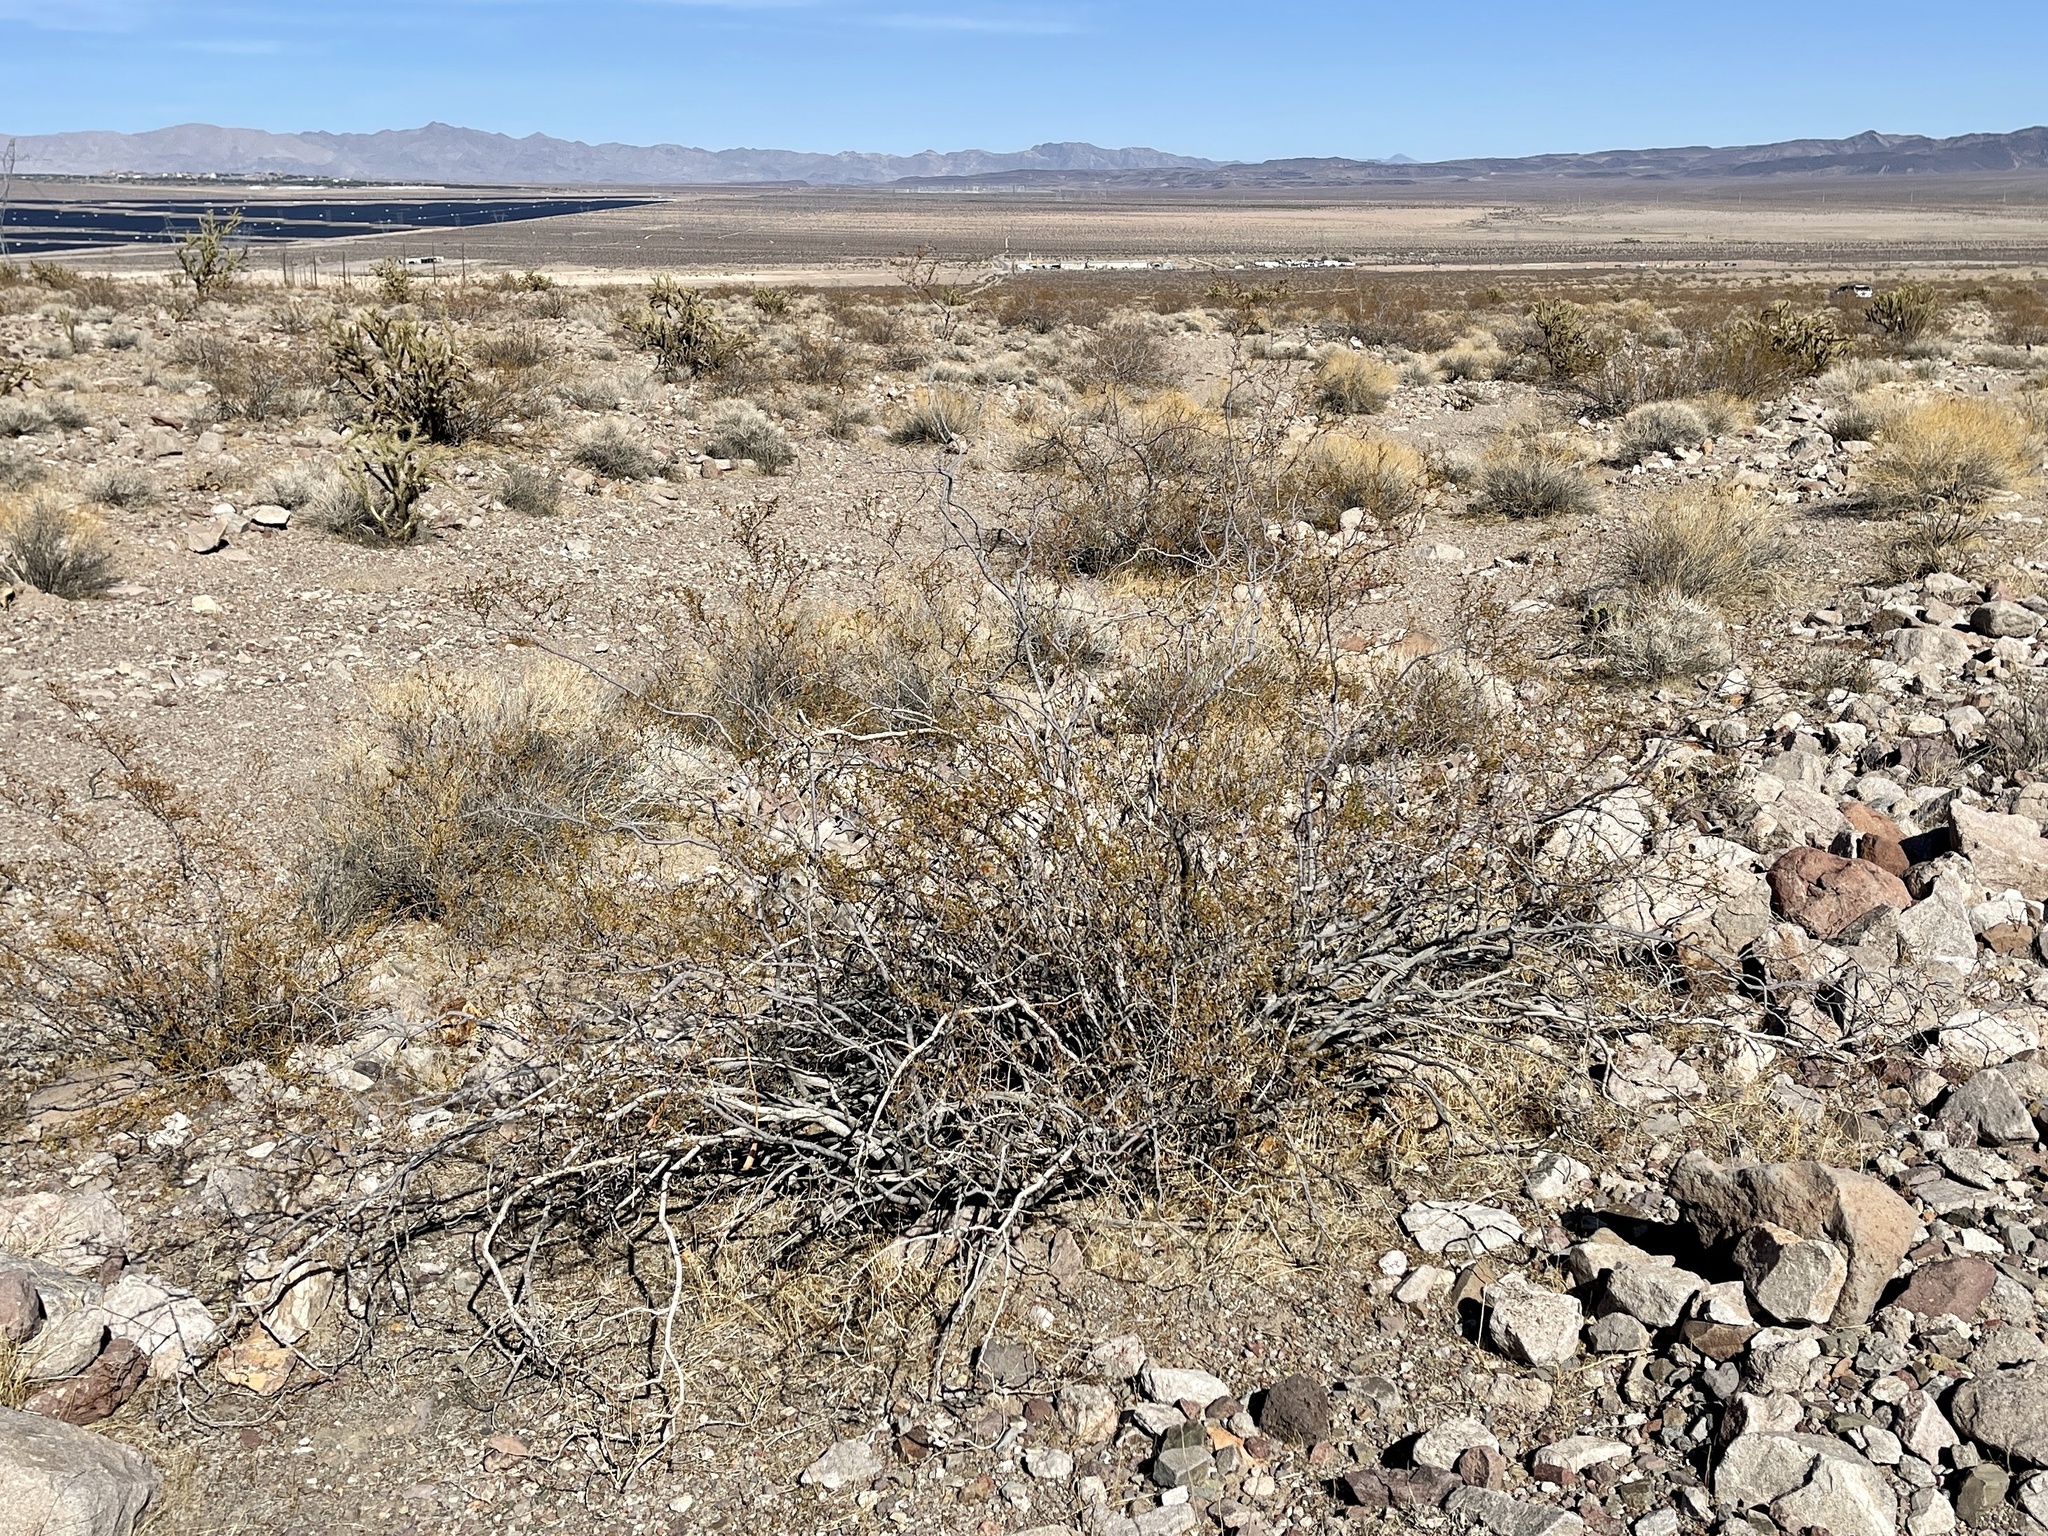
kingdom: Plantae
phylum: Tracheophyta
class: Magnoliopsida
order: Zygophyllales
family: Zygophyllaceae
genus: Larrea
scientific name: Larrea tridentata
